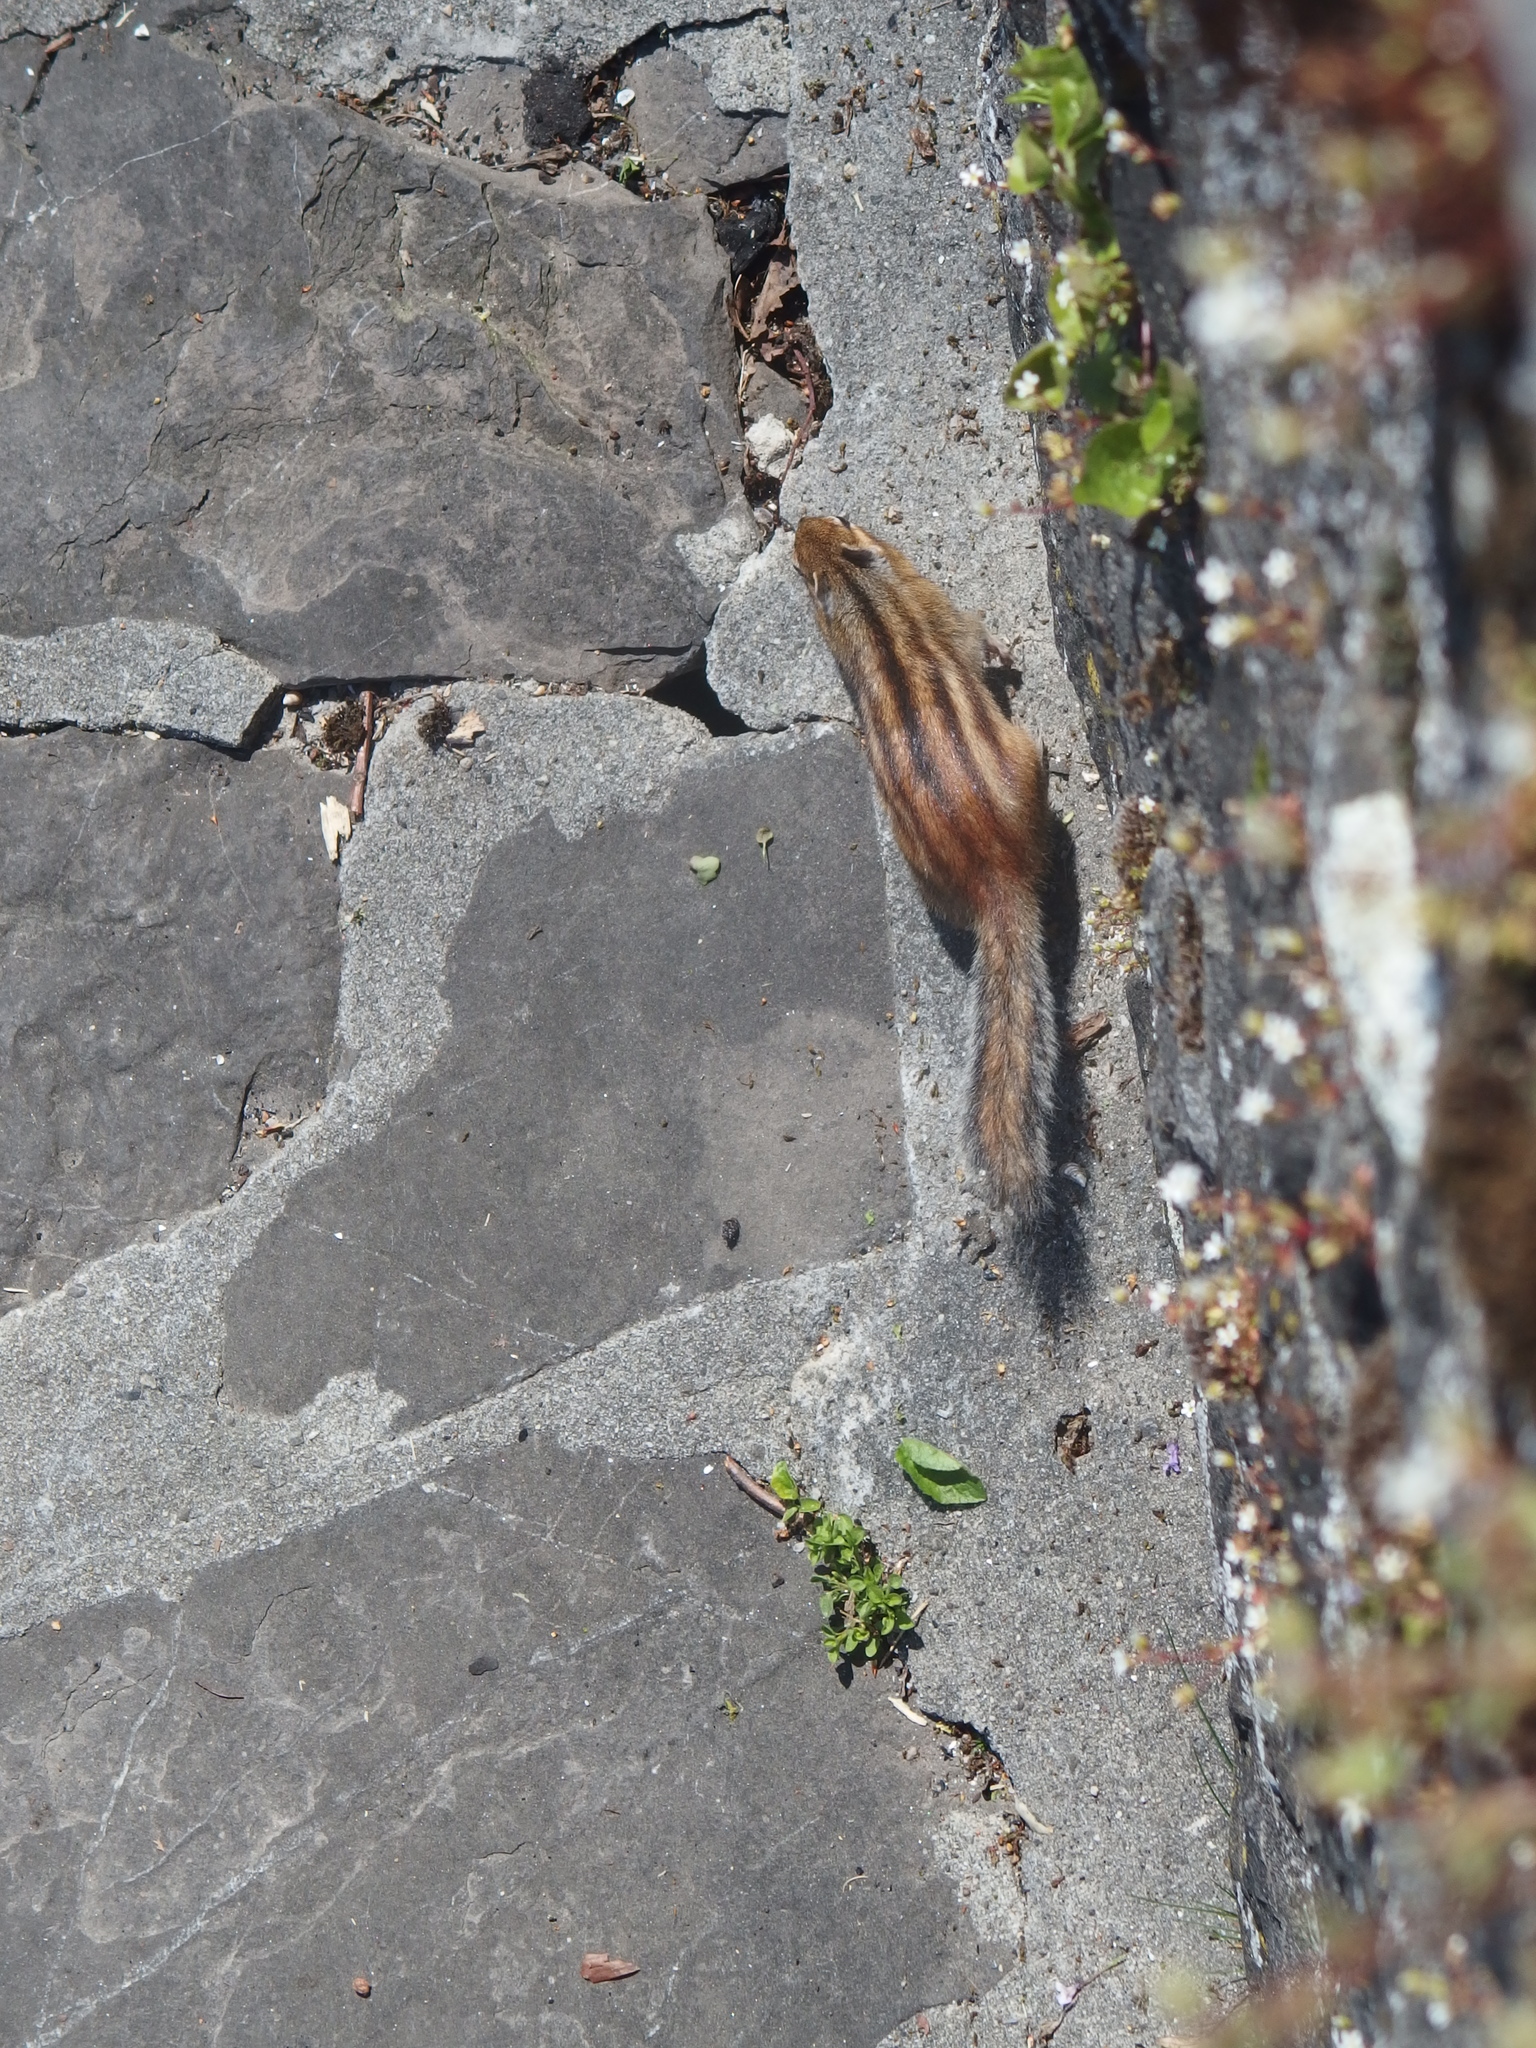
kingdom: Animalia
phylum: Chordata
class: Mammalia
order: Rodentia
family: Sciuridae
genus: Tamias
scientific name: Tamias sibiricus
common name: Siberian chipmunk
